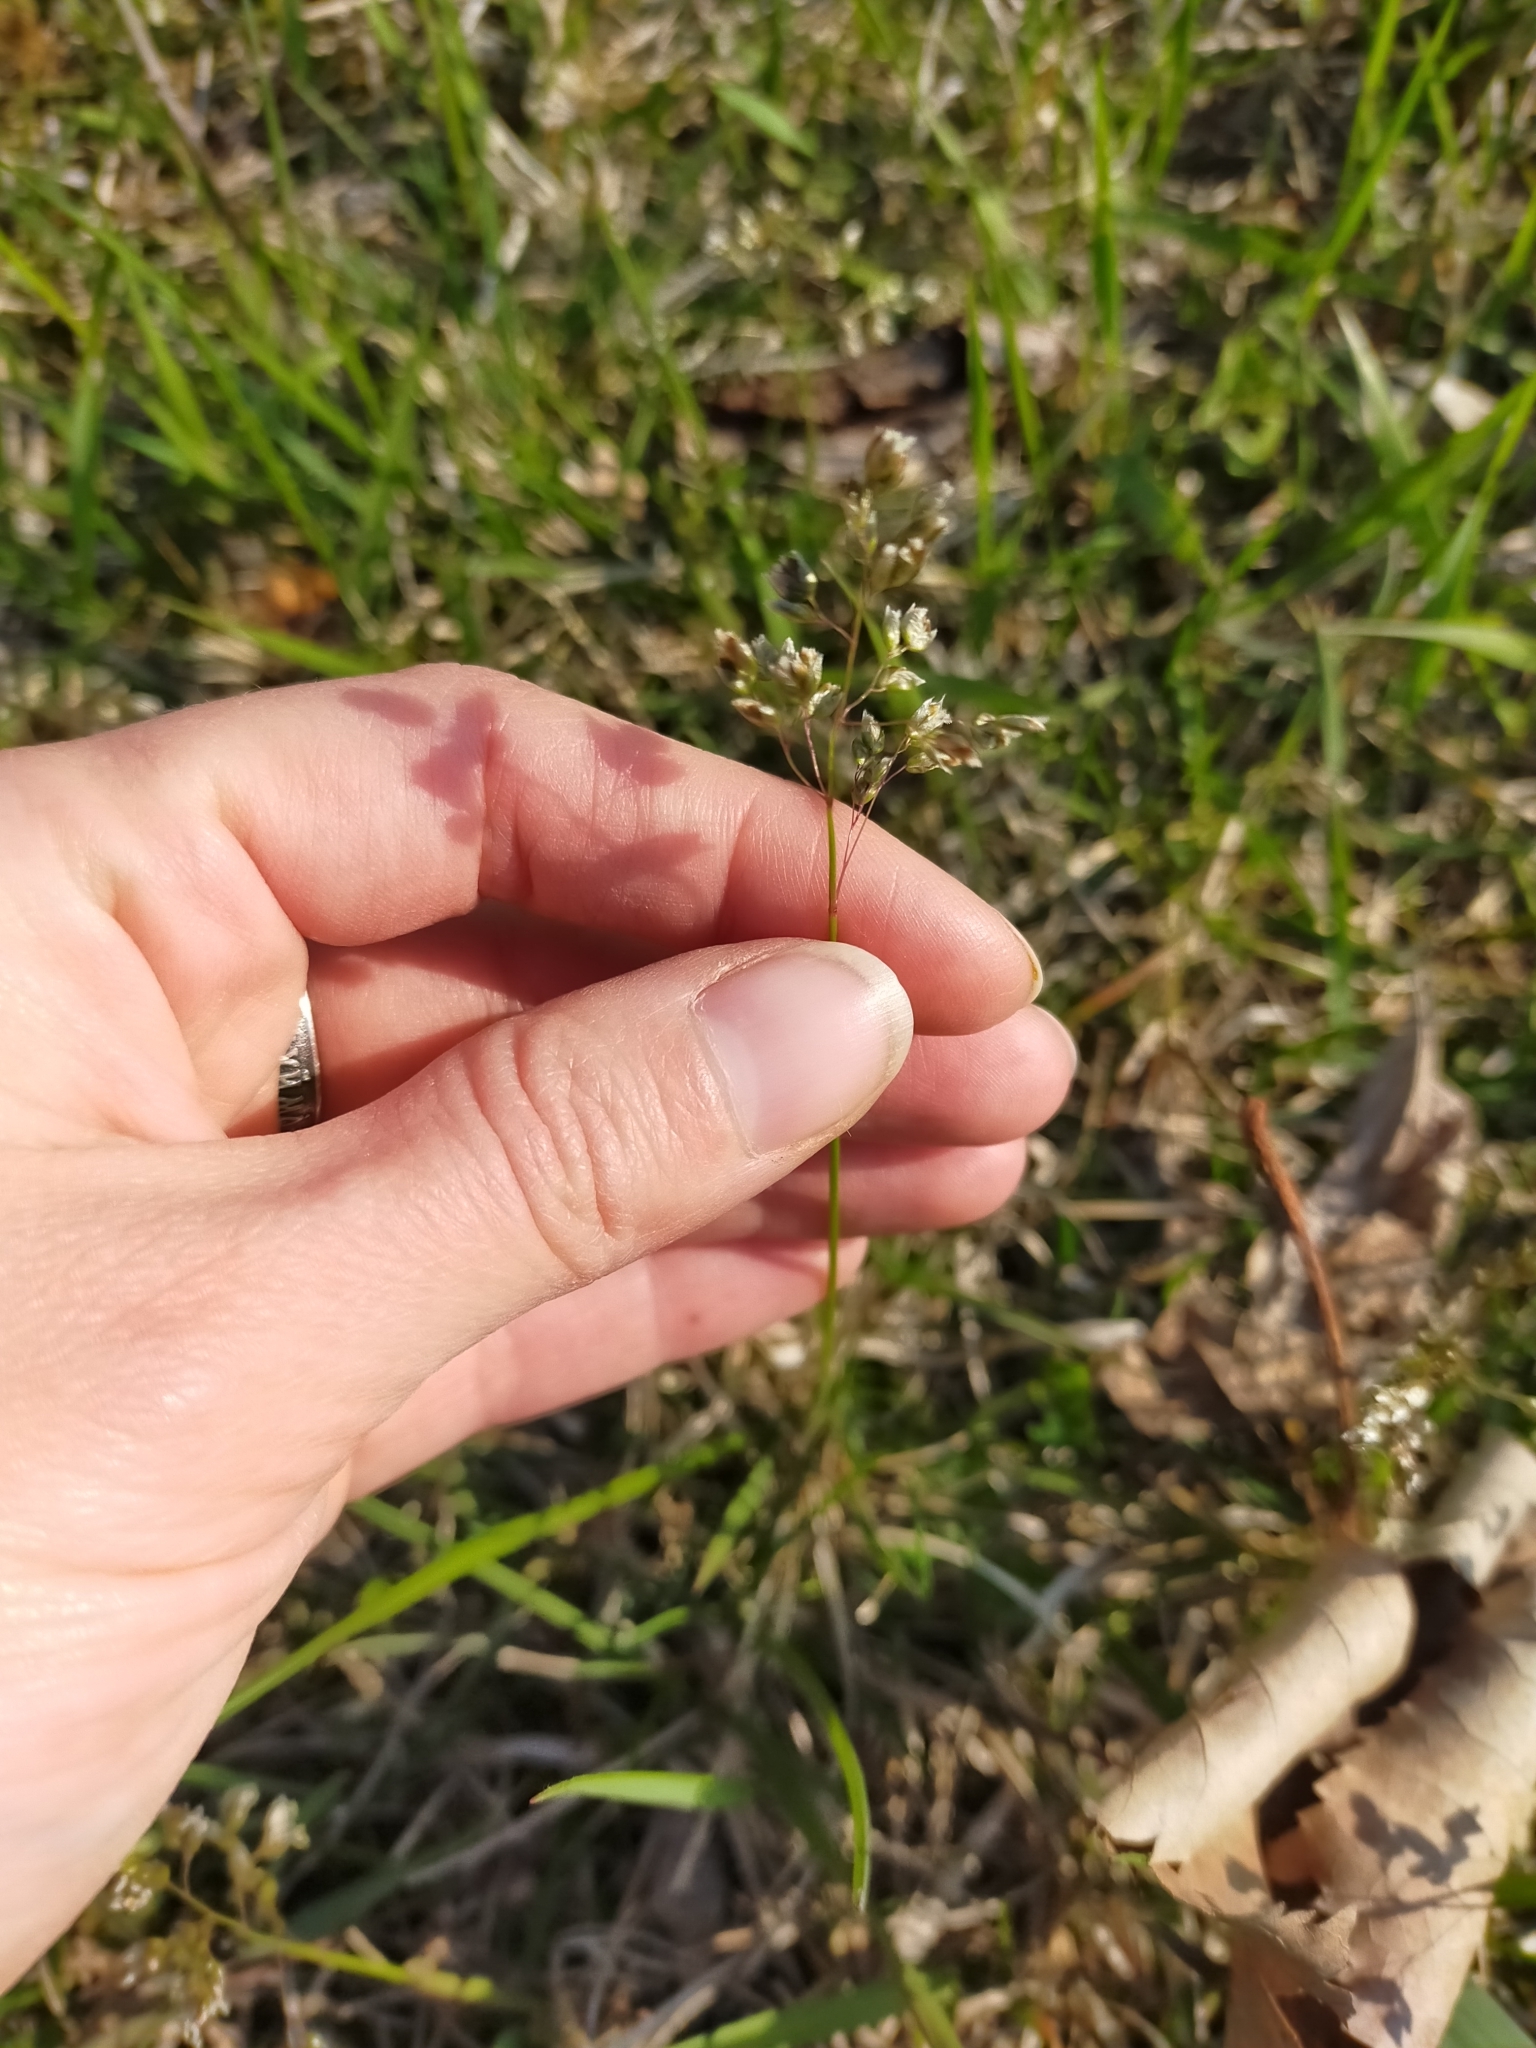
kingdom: Plantae
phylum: Tracheophyta
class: Liliopsida
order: Poales
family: Poaceae
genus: Anthoxanthum
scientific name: Anthoxanthum glabrum
